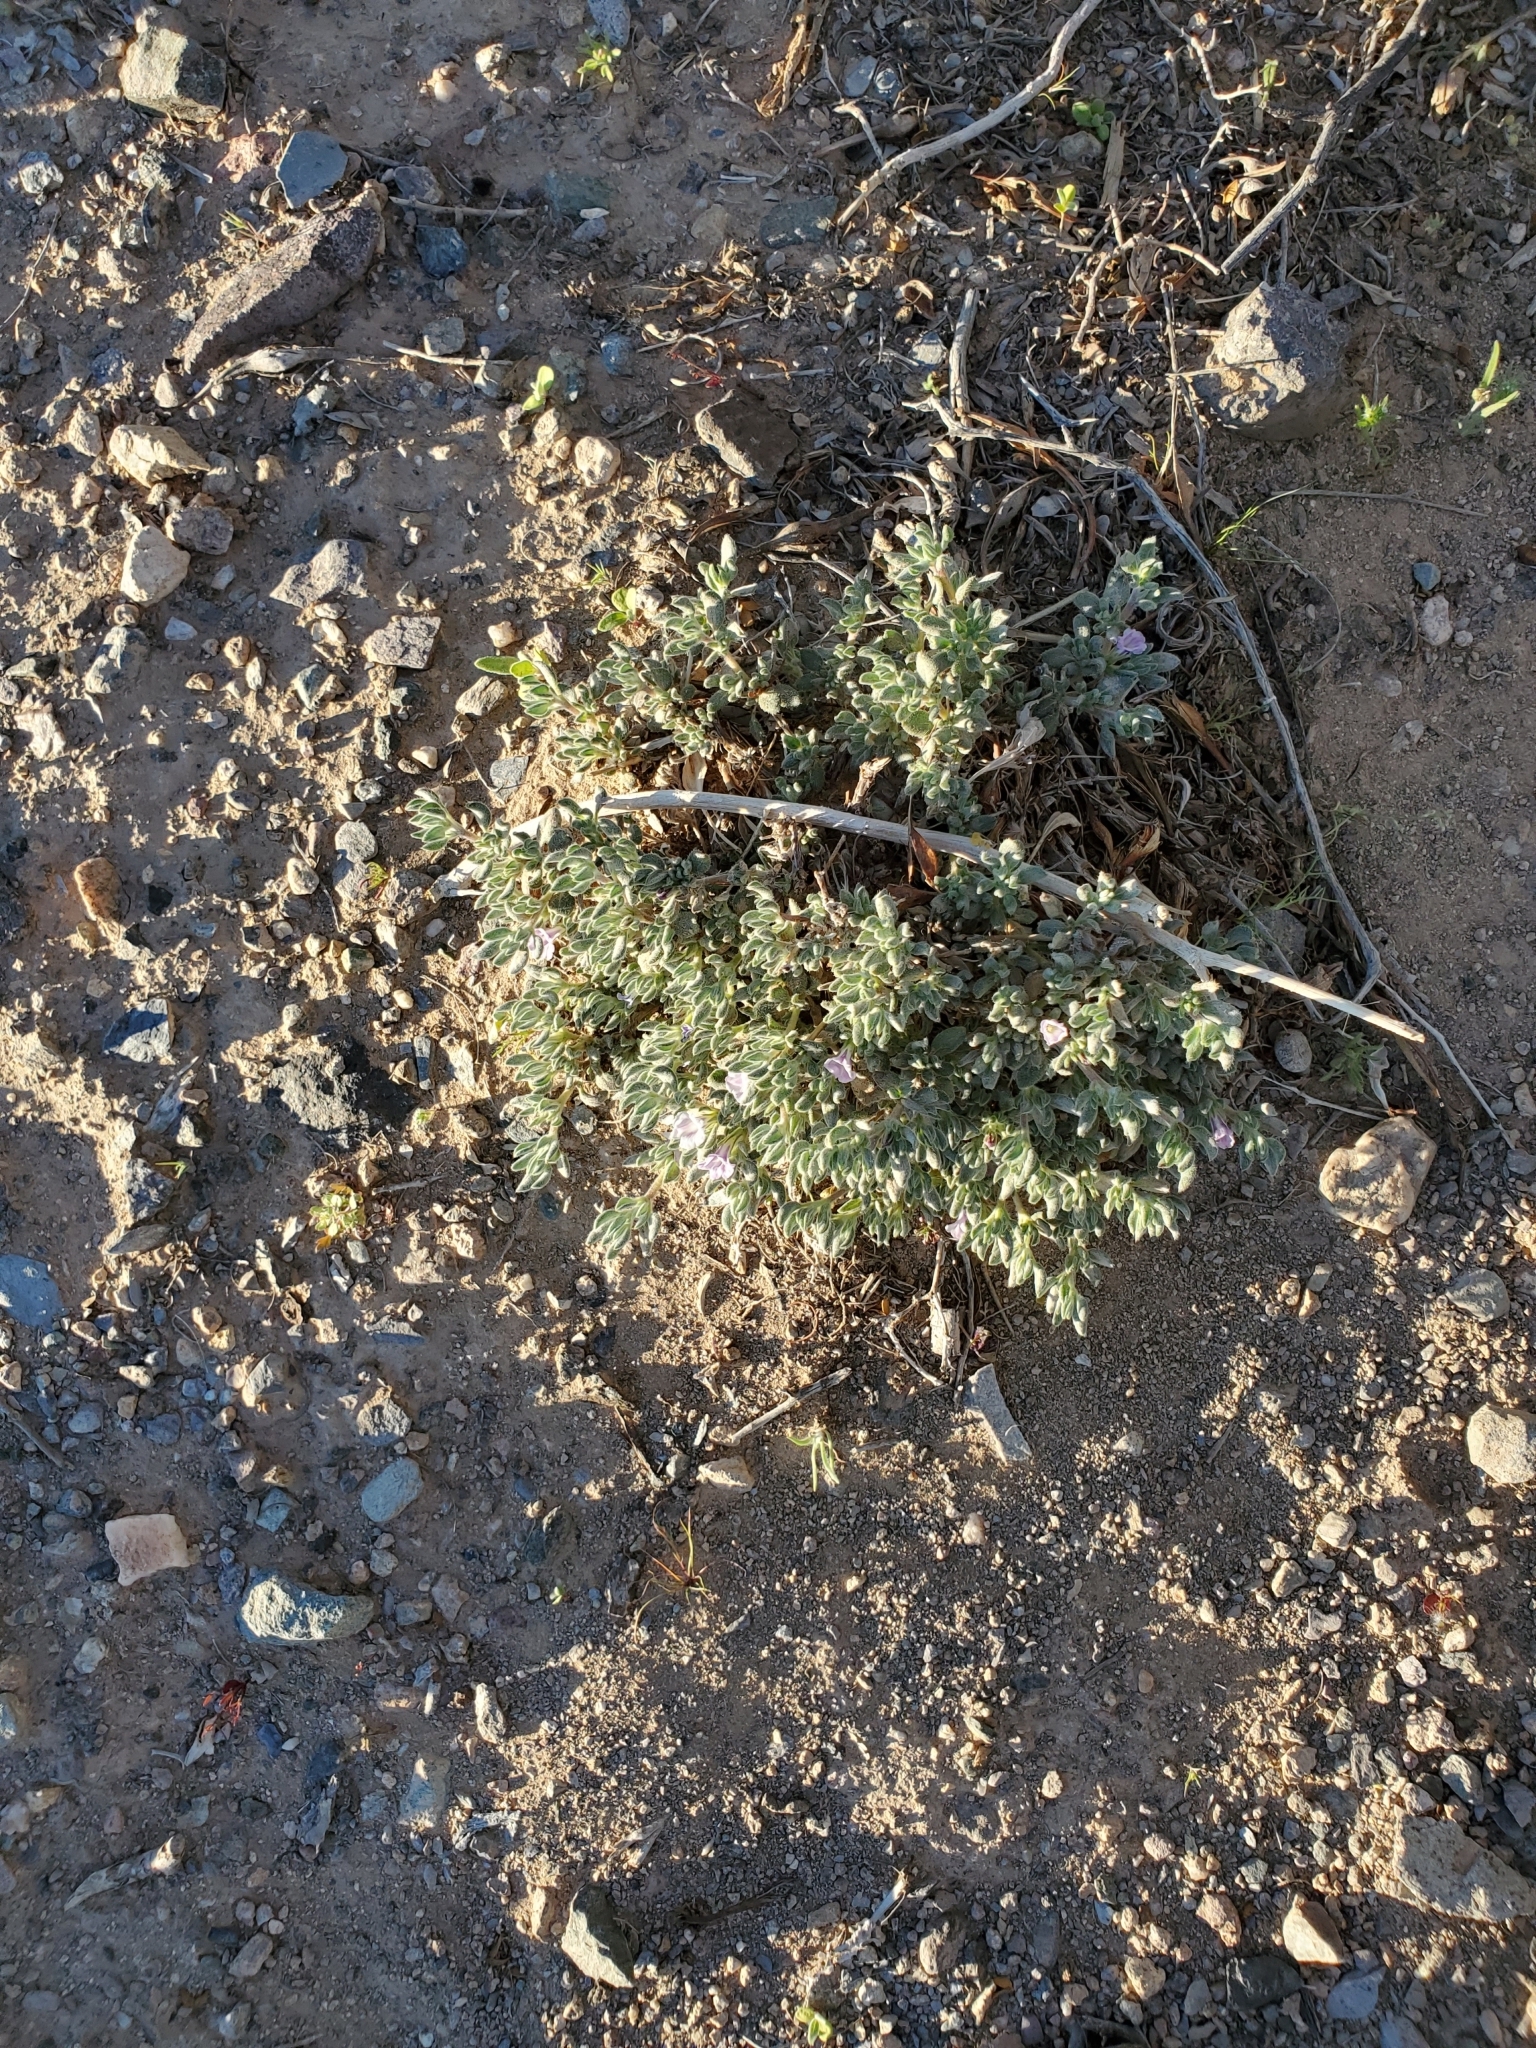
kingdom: Plantae
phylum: Tracheophyta
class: Magnoliopsida
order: Boraginales
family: Ehretiaceae
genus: Tiquilia
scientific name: Tiquilia canescens
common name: Hairy tiquilia
